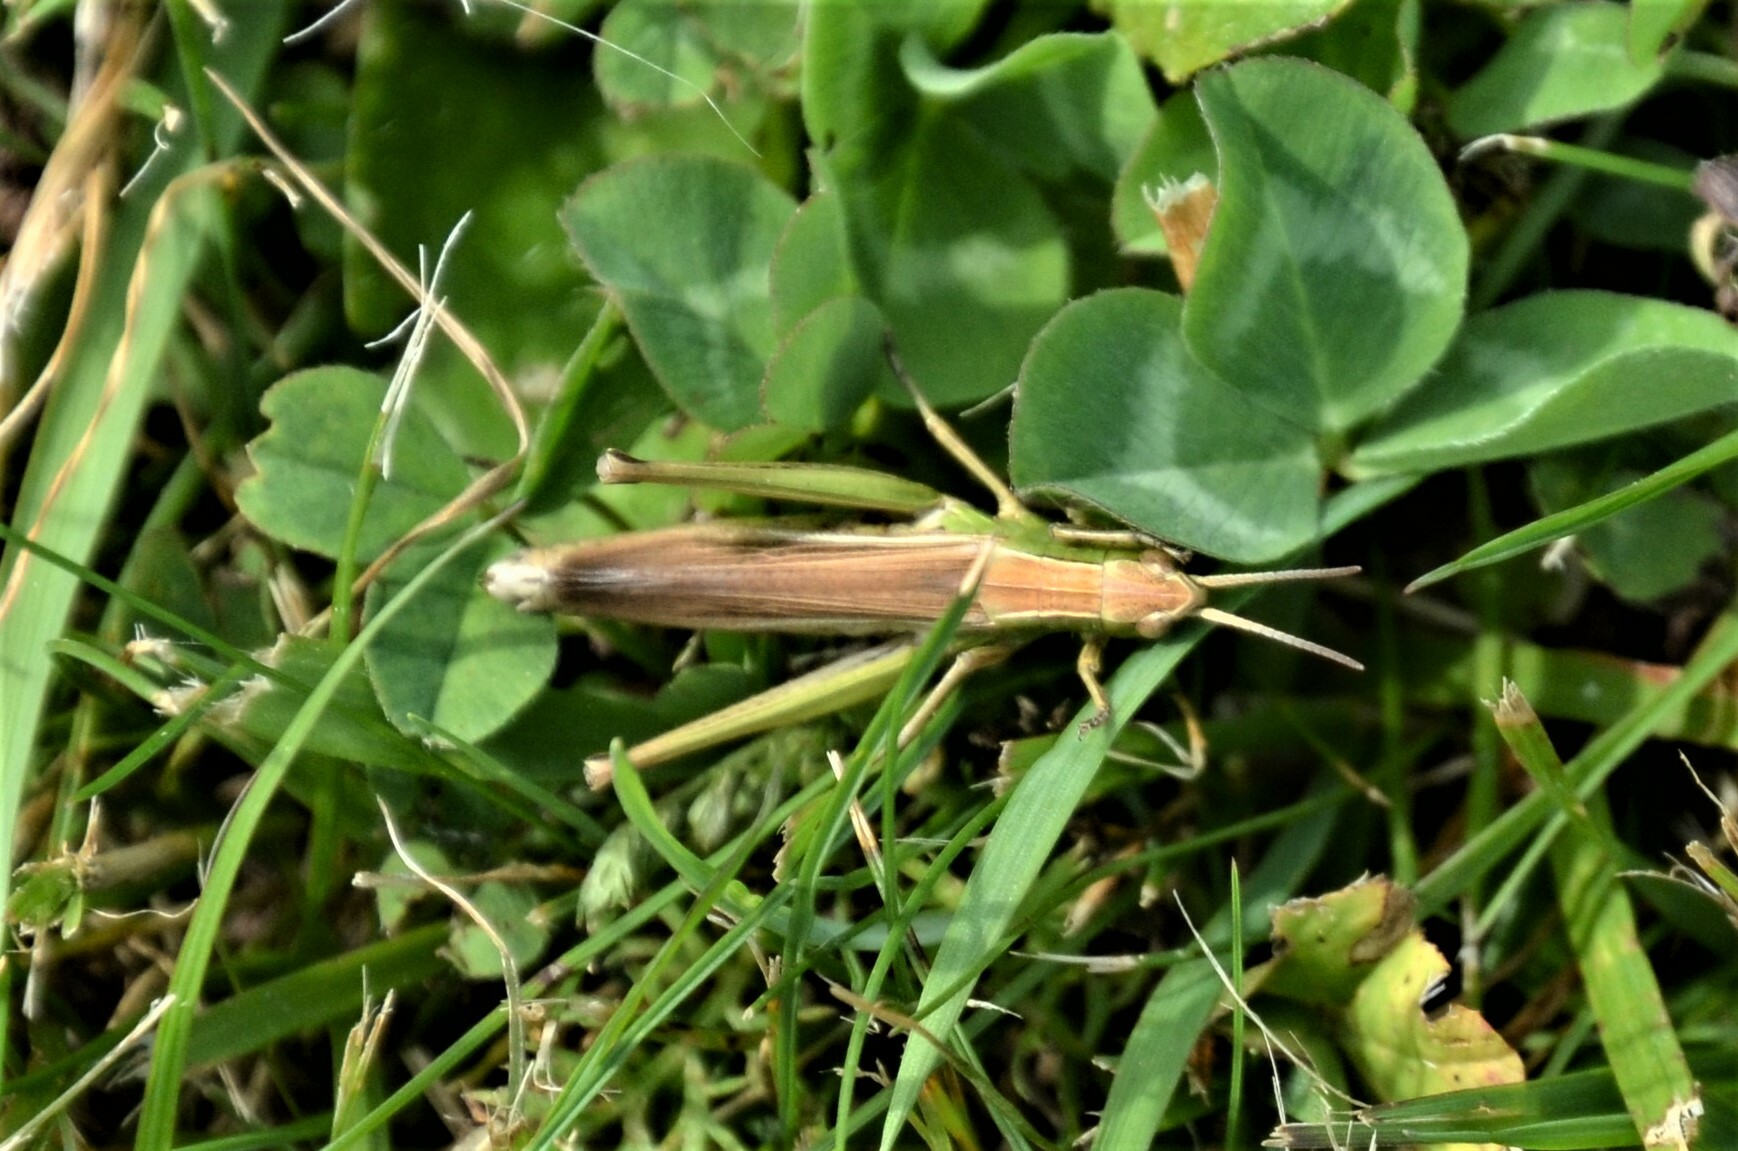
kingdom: Animalia
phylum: Arthropoda
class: Insecta
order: Orthoptera
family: Acrididae
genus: Chorthippus
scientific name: Chorthippus albomarginatus
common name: Lesser marsh grasshopper
